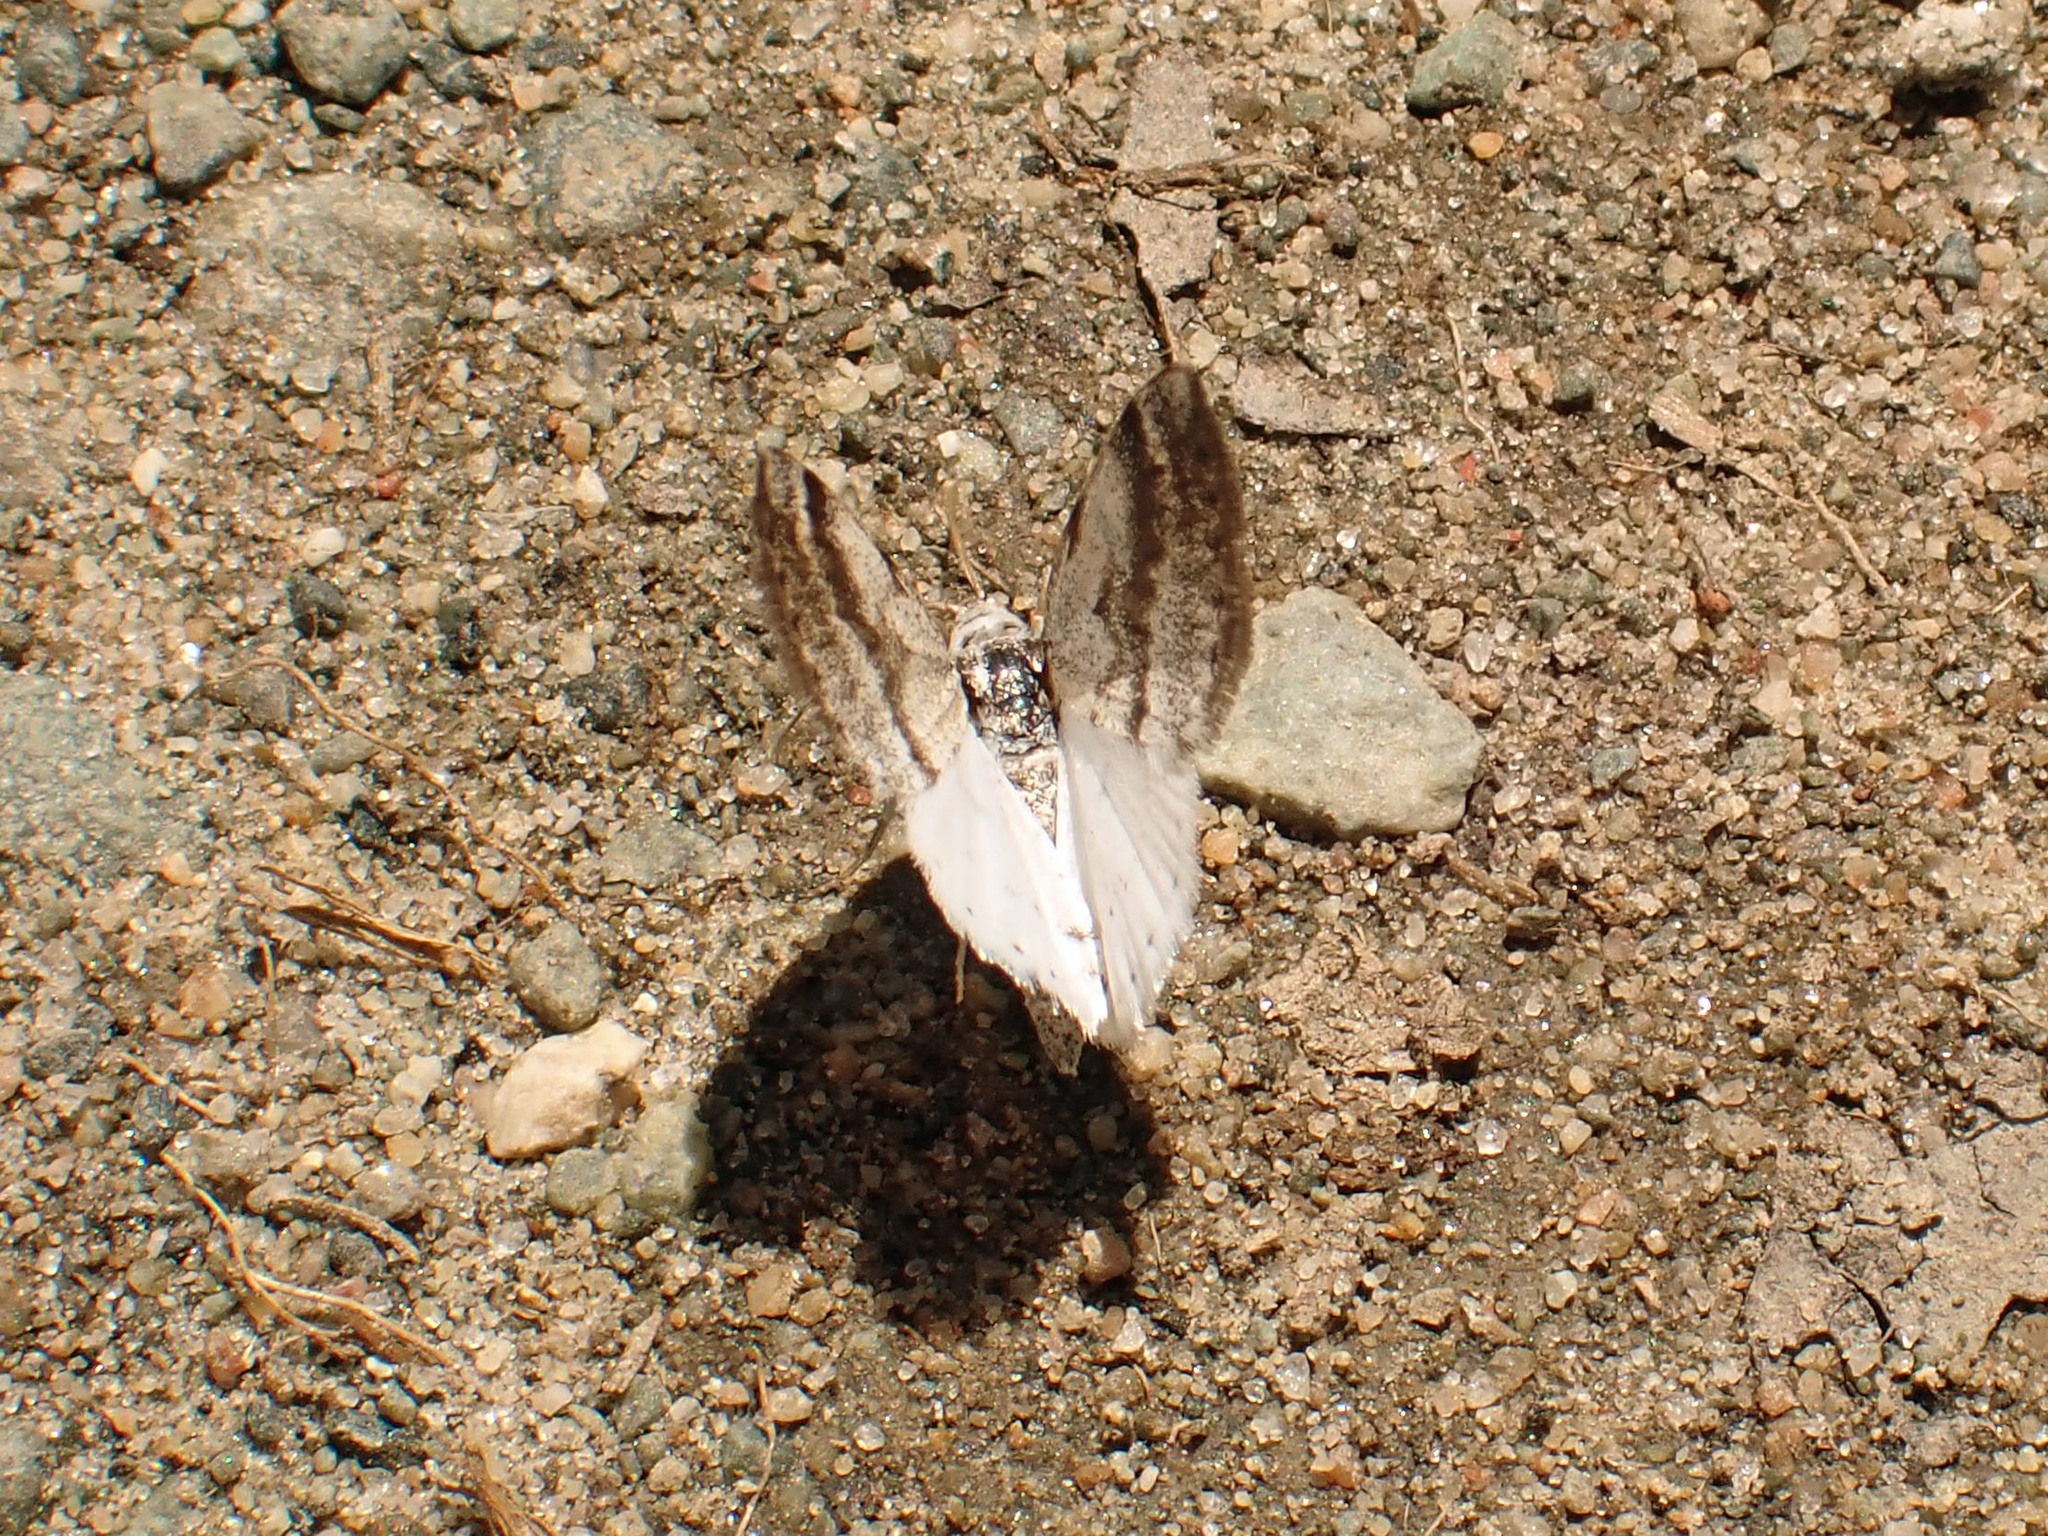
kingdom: Animalia
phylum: Arthropoda
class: Insecta
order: Lepidoptera
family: Geometridae
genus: Lomographa
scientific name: Lomographa semiclarata
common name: Bluish spring moth
